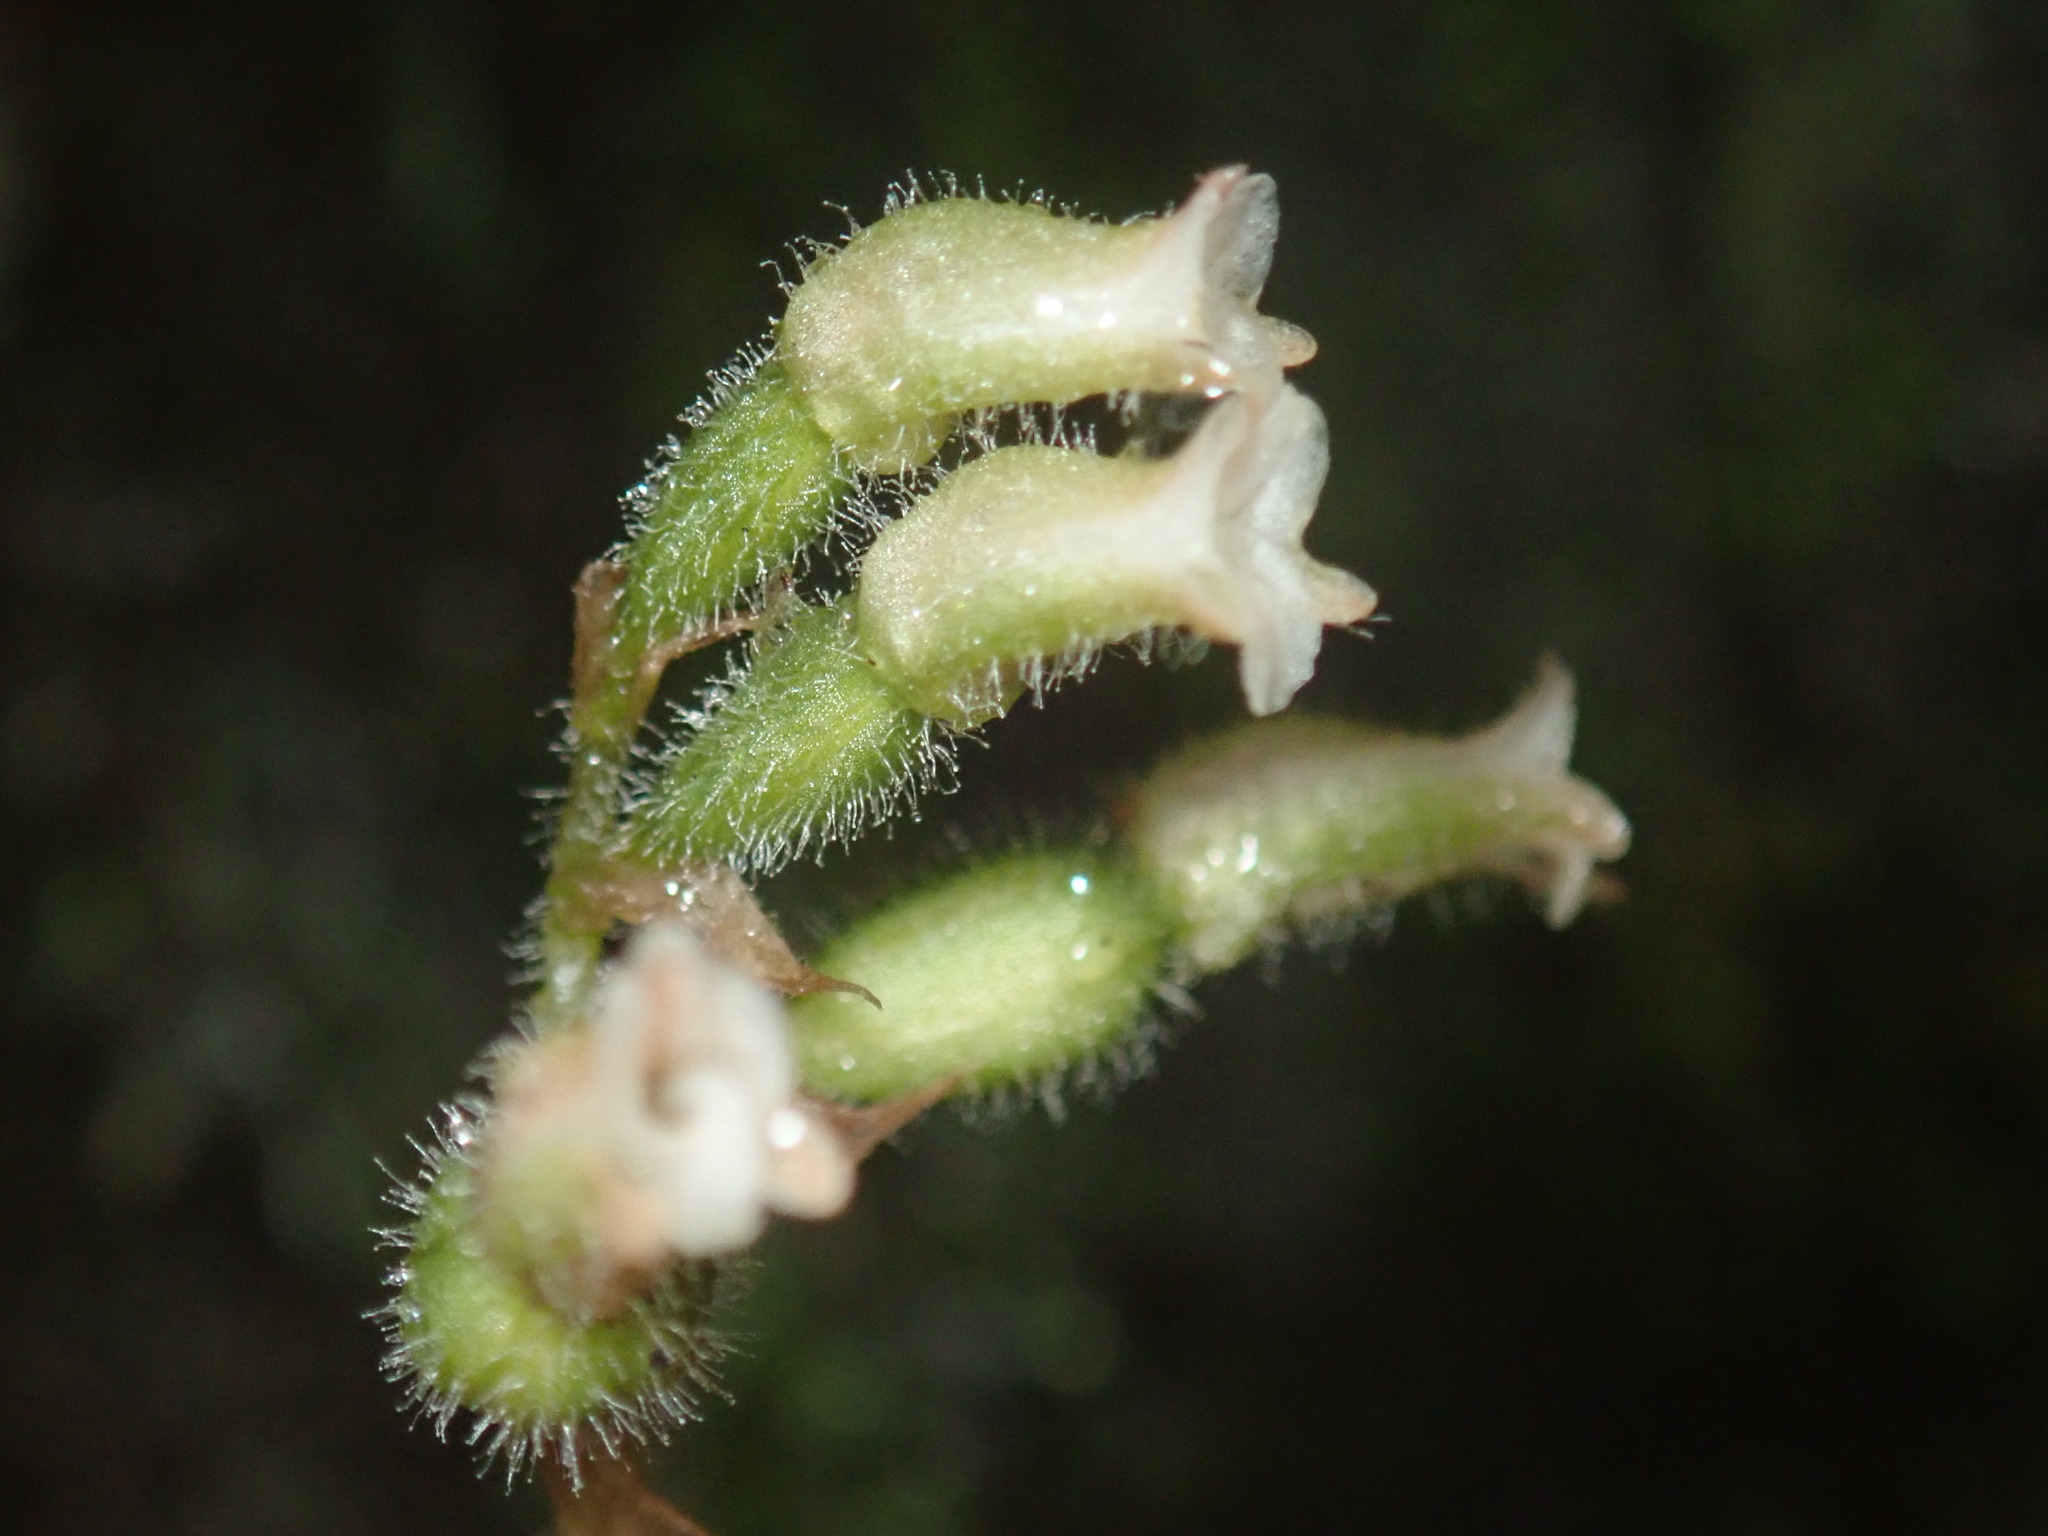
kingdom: Plantae
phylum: Tracheophyta
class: Liliopsida
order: Asparagales
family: Orchidaceae
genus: Cheirostylis
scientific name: Cheirostylis takeoi
